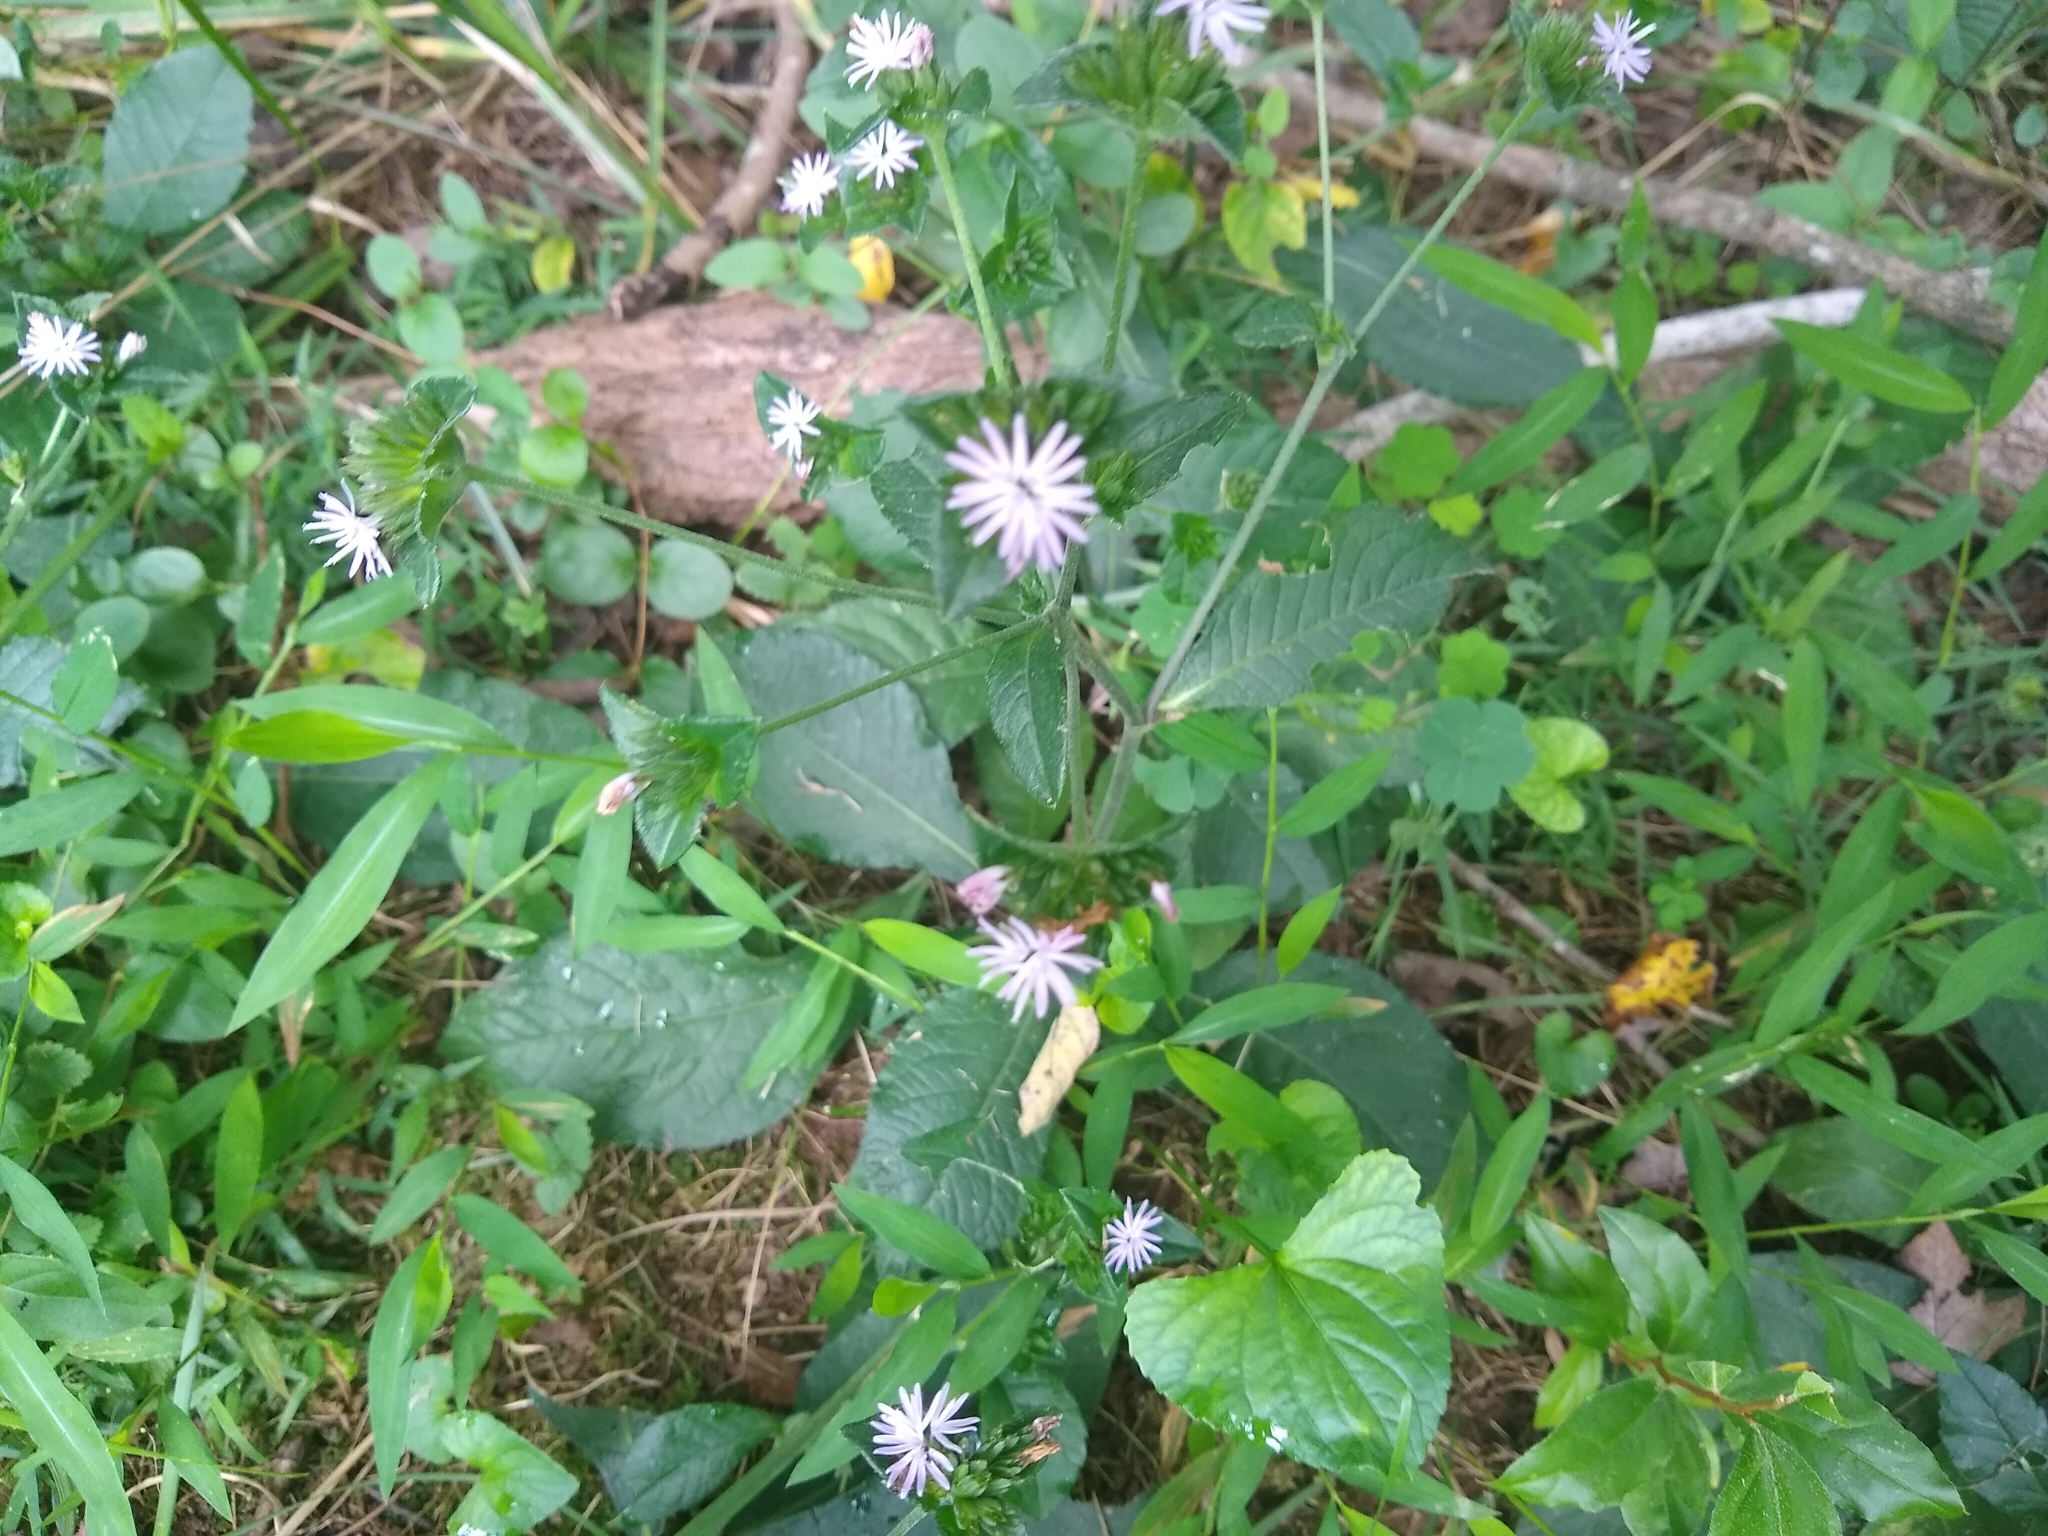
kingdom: Plantae
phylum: Tracheophyta
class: Magnoliopsida
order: Asterales
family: Asteraceae
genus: Elephantopus
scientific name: Elephantopus tomentosus
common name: Tobacco-weed
